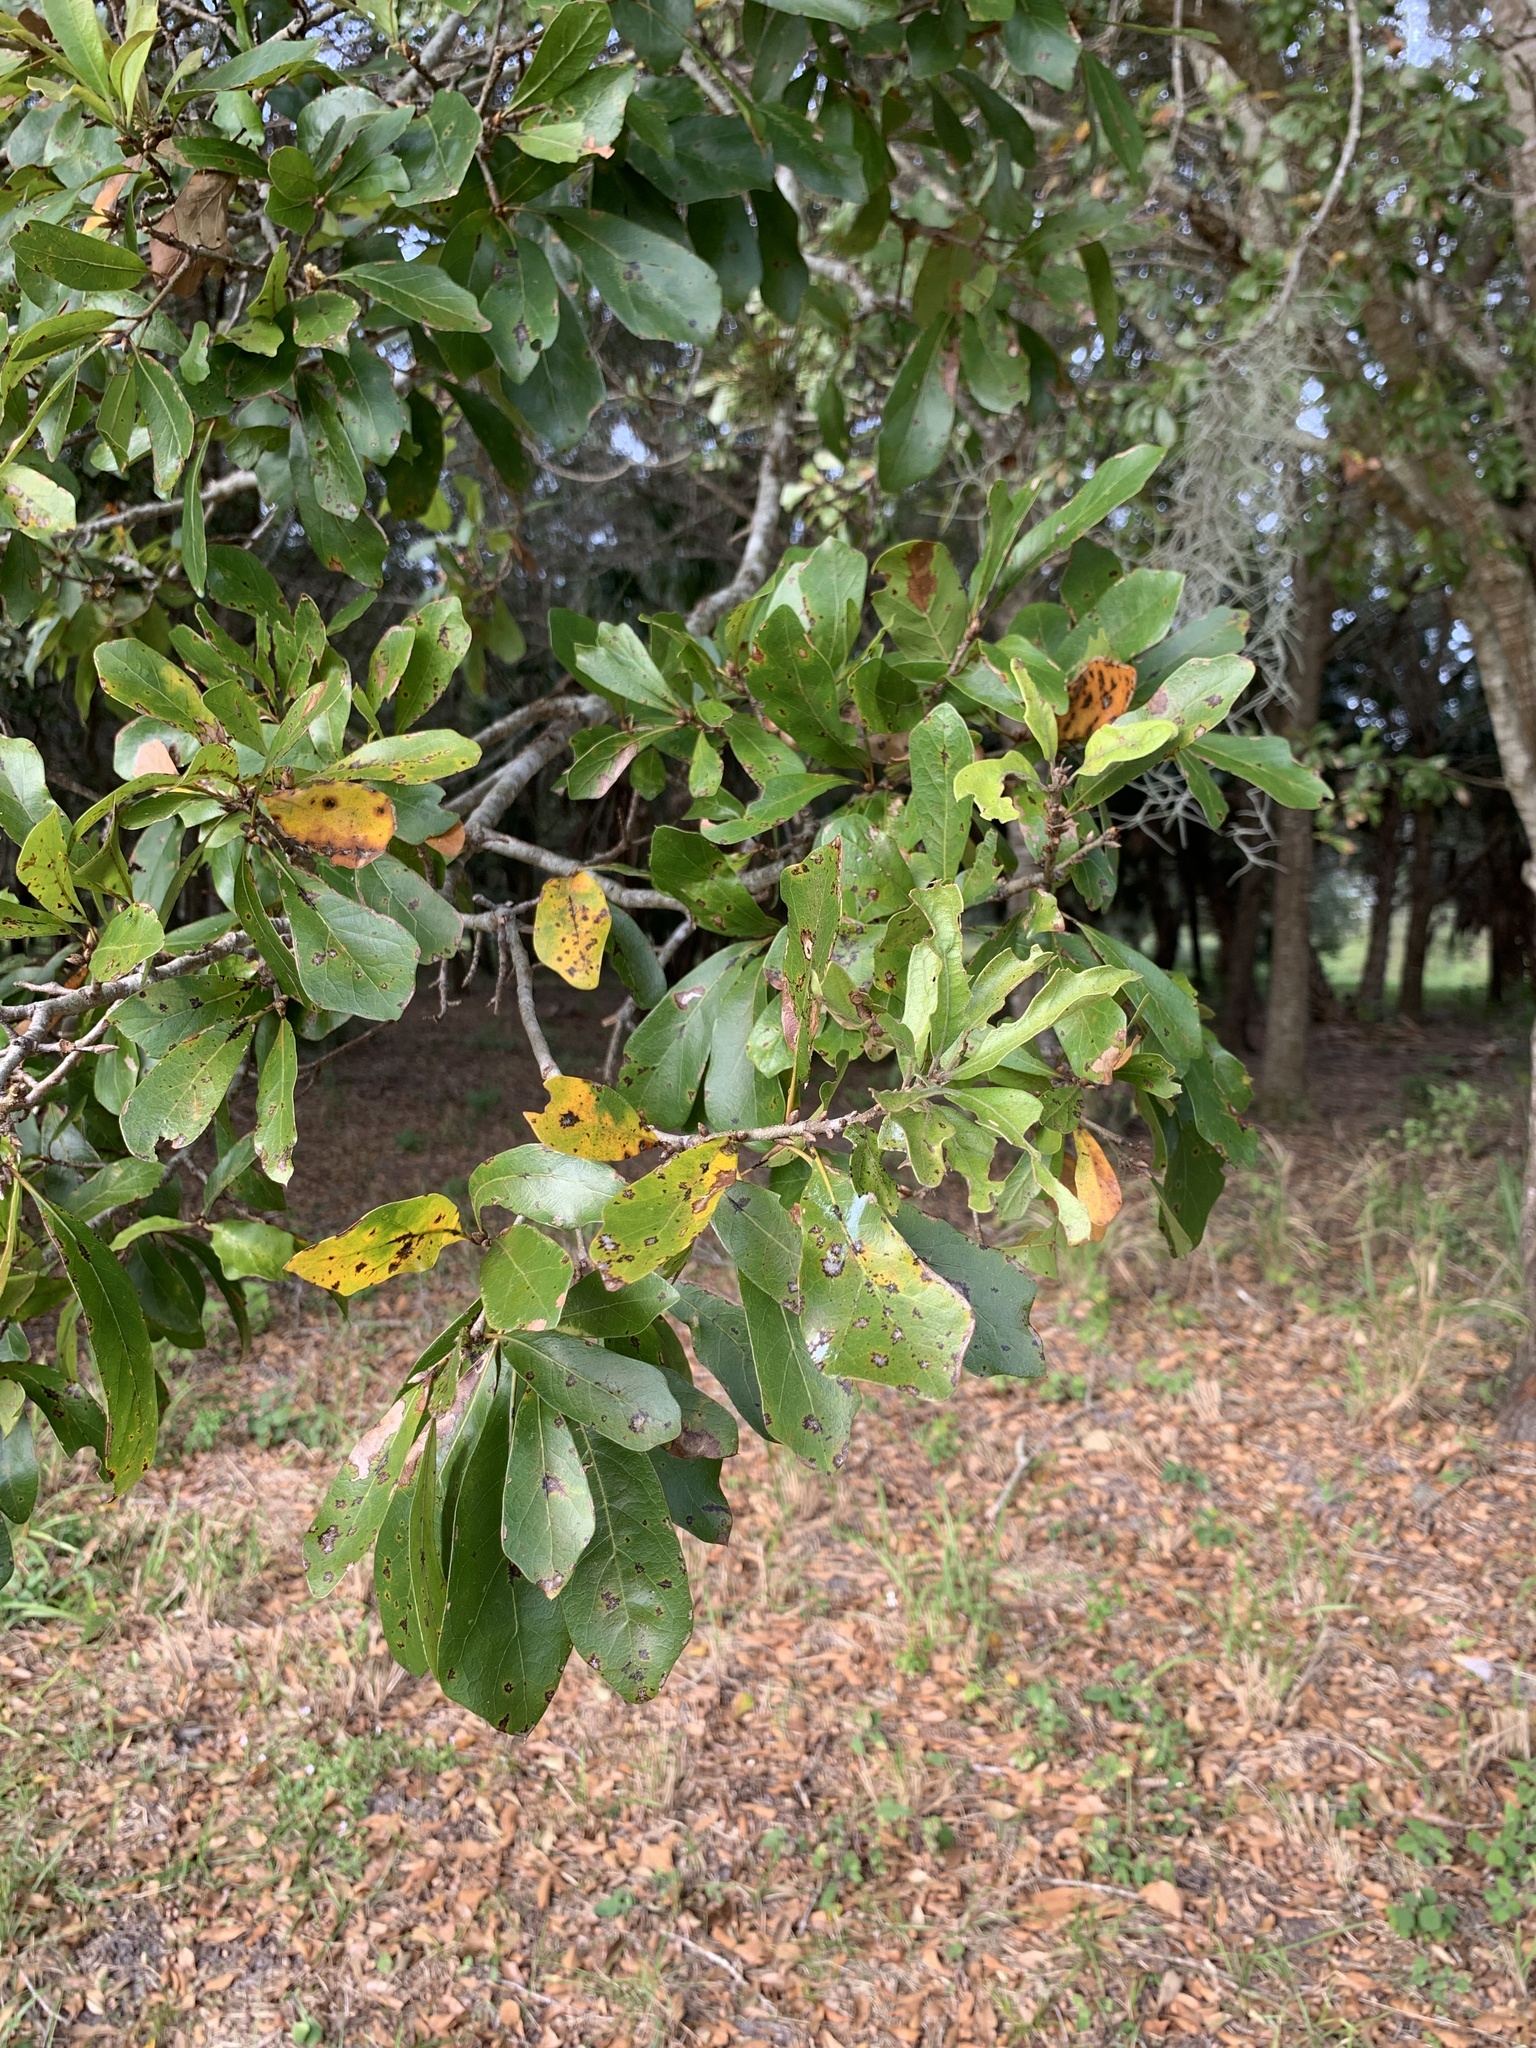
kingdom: Plantae
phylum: Tracheophyta
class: Magnoliopsida
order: Fagales
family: Fagaceae
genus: Quercus
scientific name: Quercus nigra
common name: Water oak
